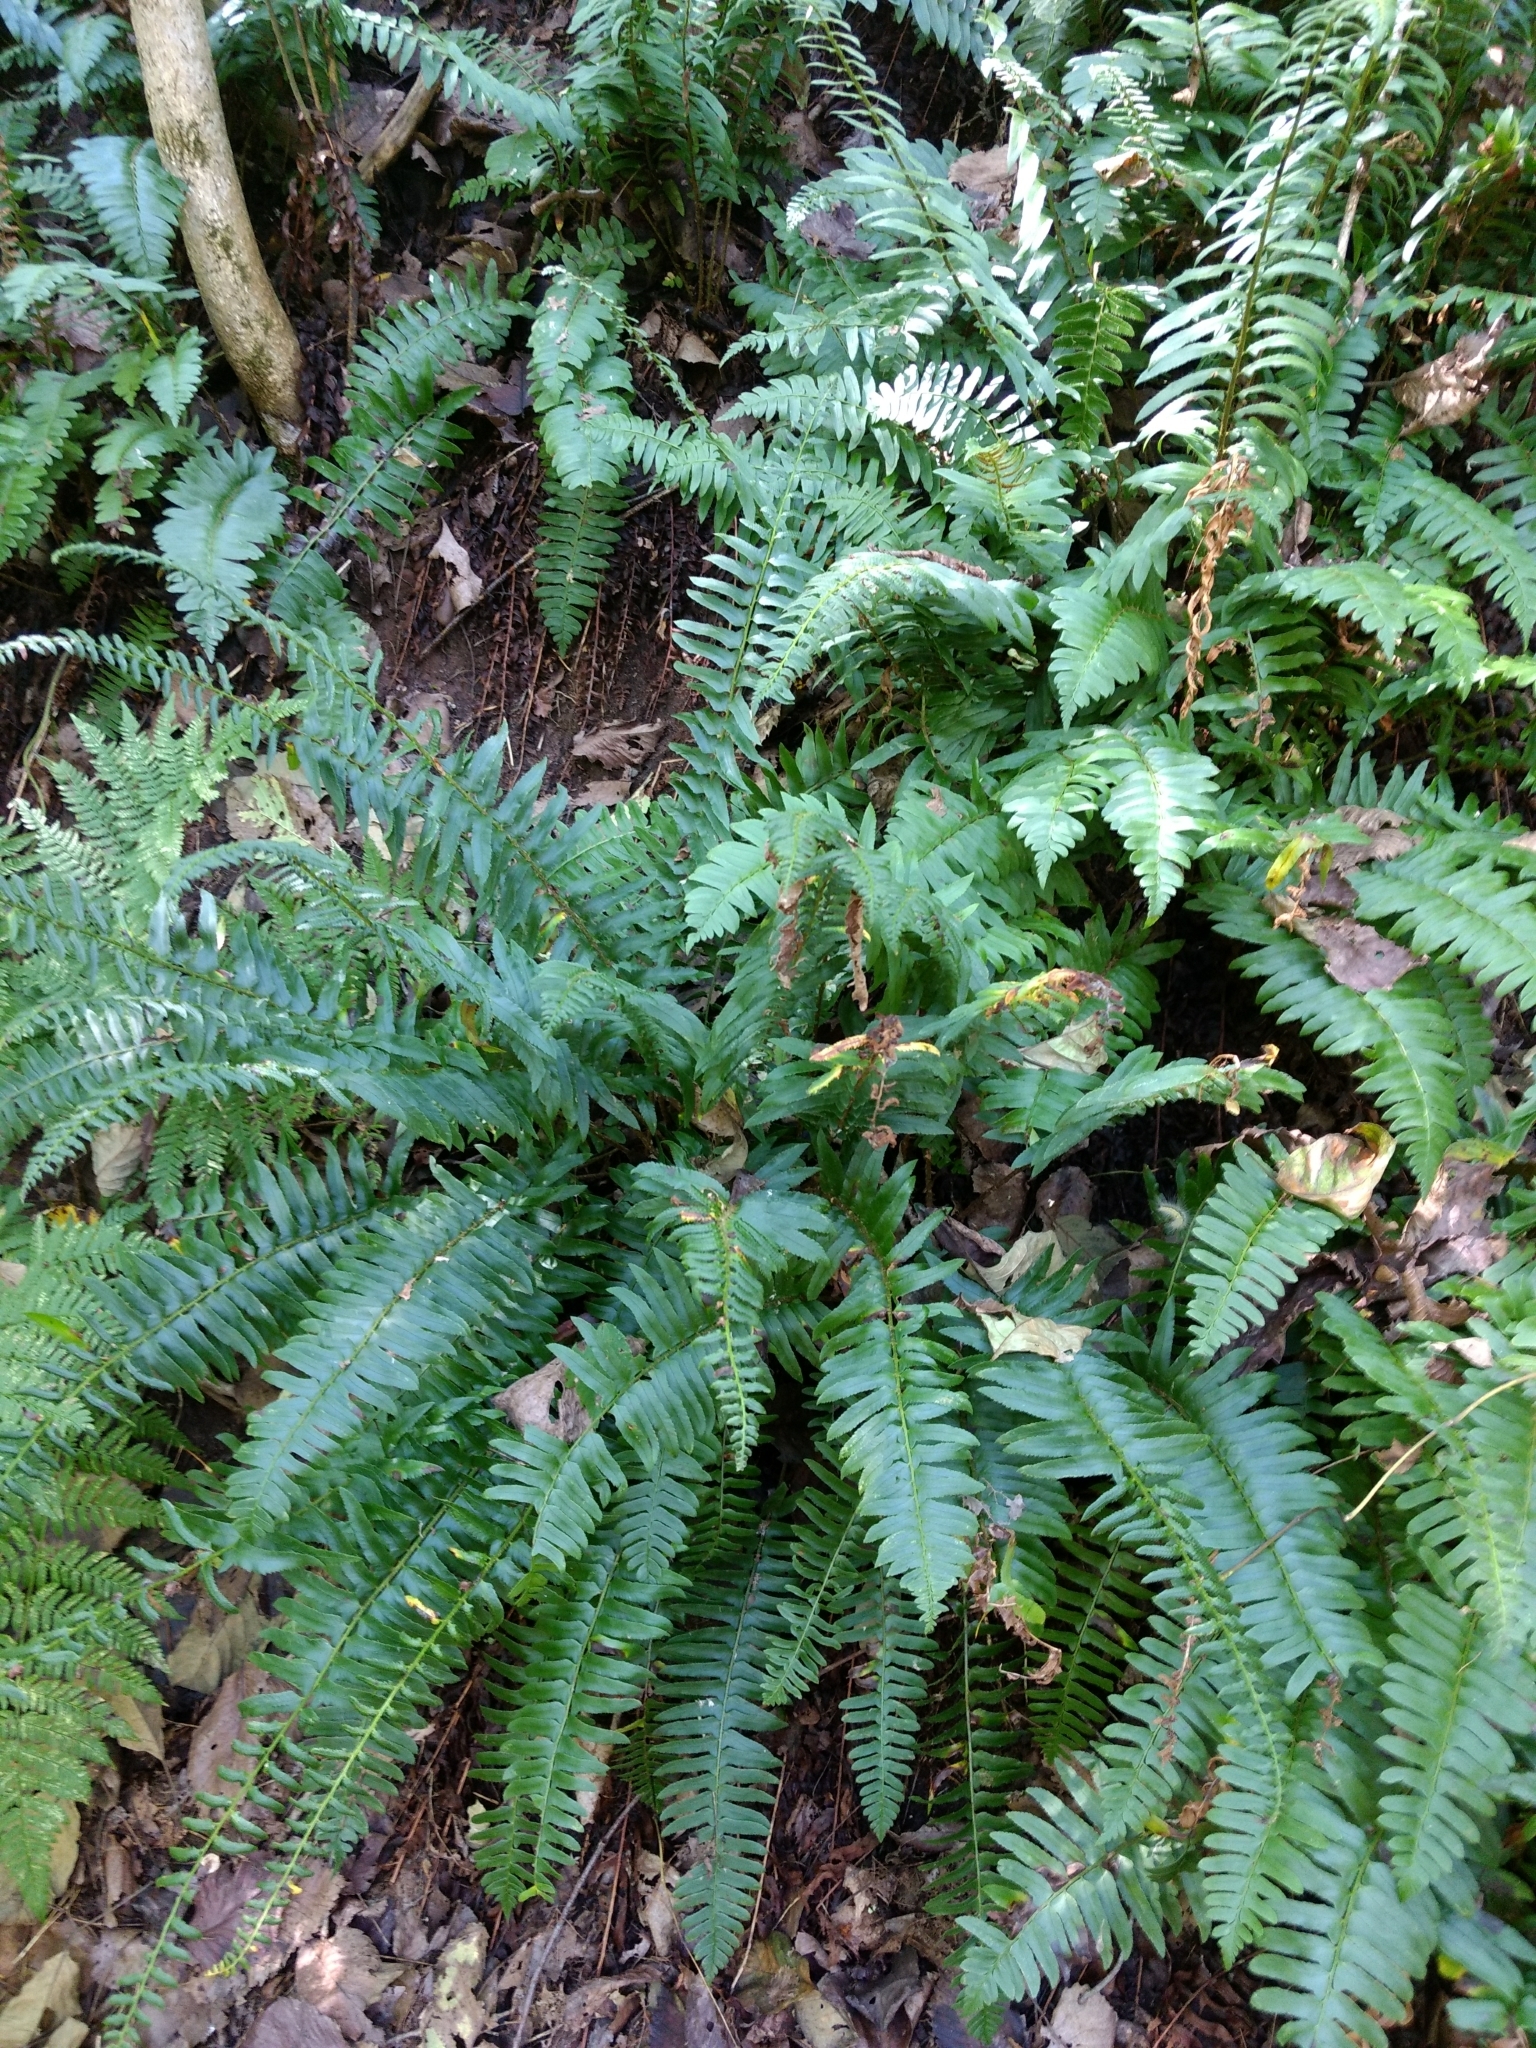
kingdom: Plantae
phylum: Tracheophyta
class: Polypodiopsida
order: Polypodiales
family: Dryopteridaceae
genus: Polystichum
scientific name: Polystichum acrostichoides
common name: Christmas fern
